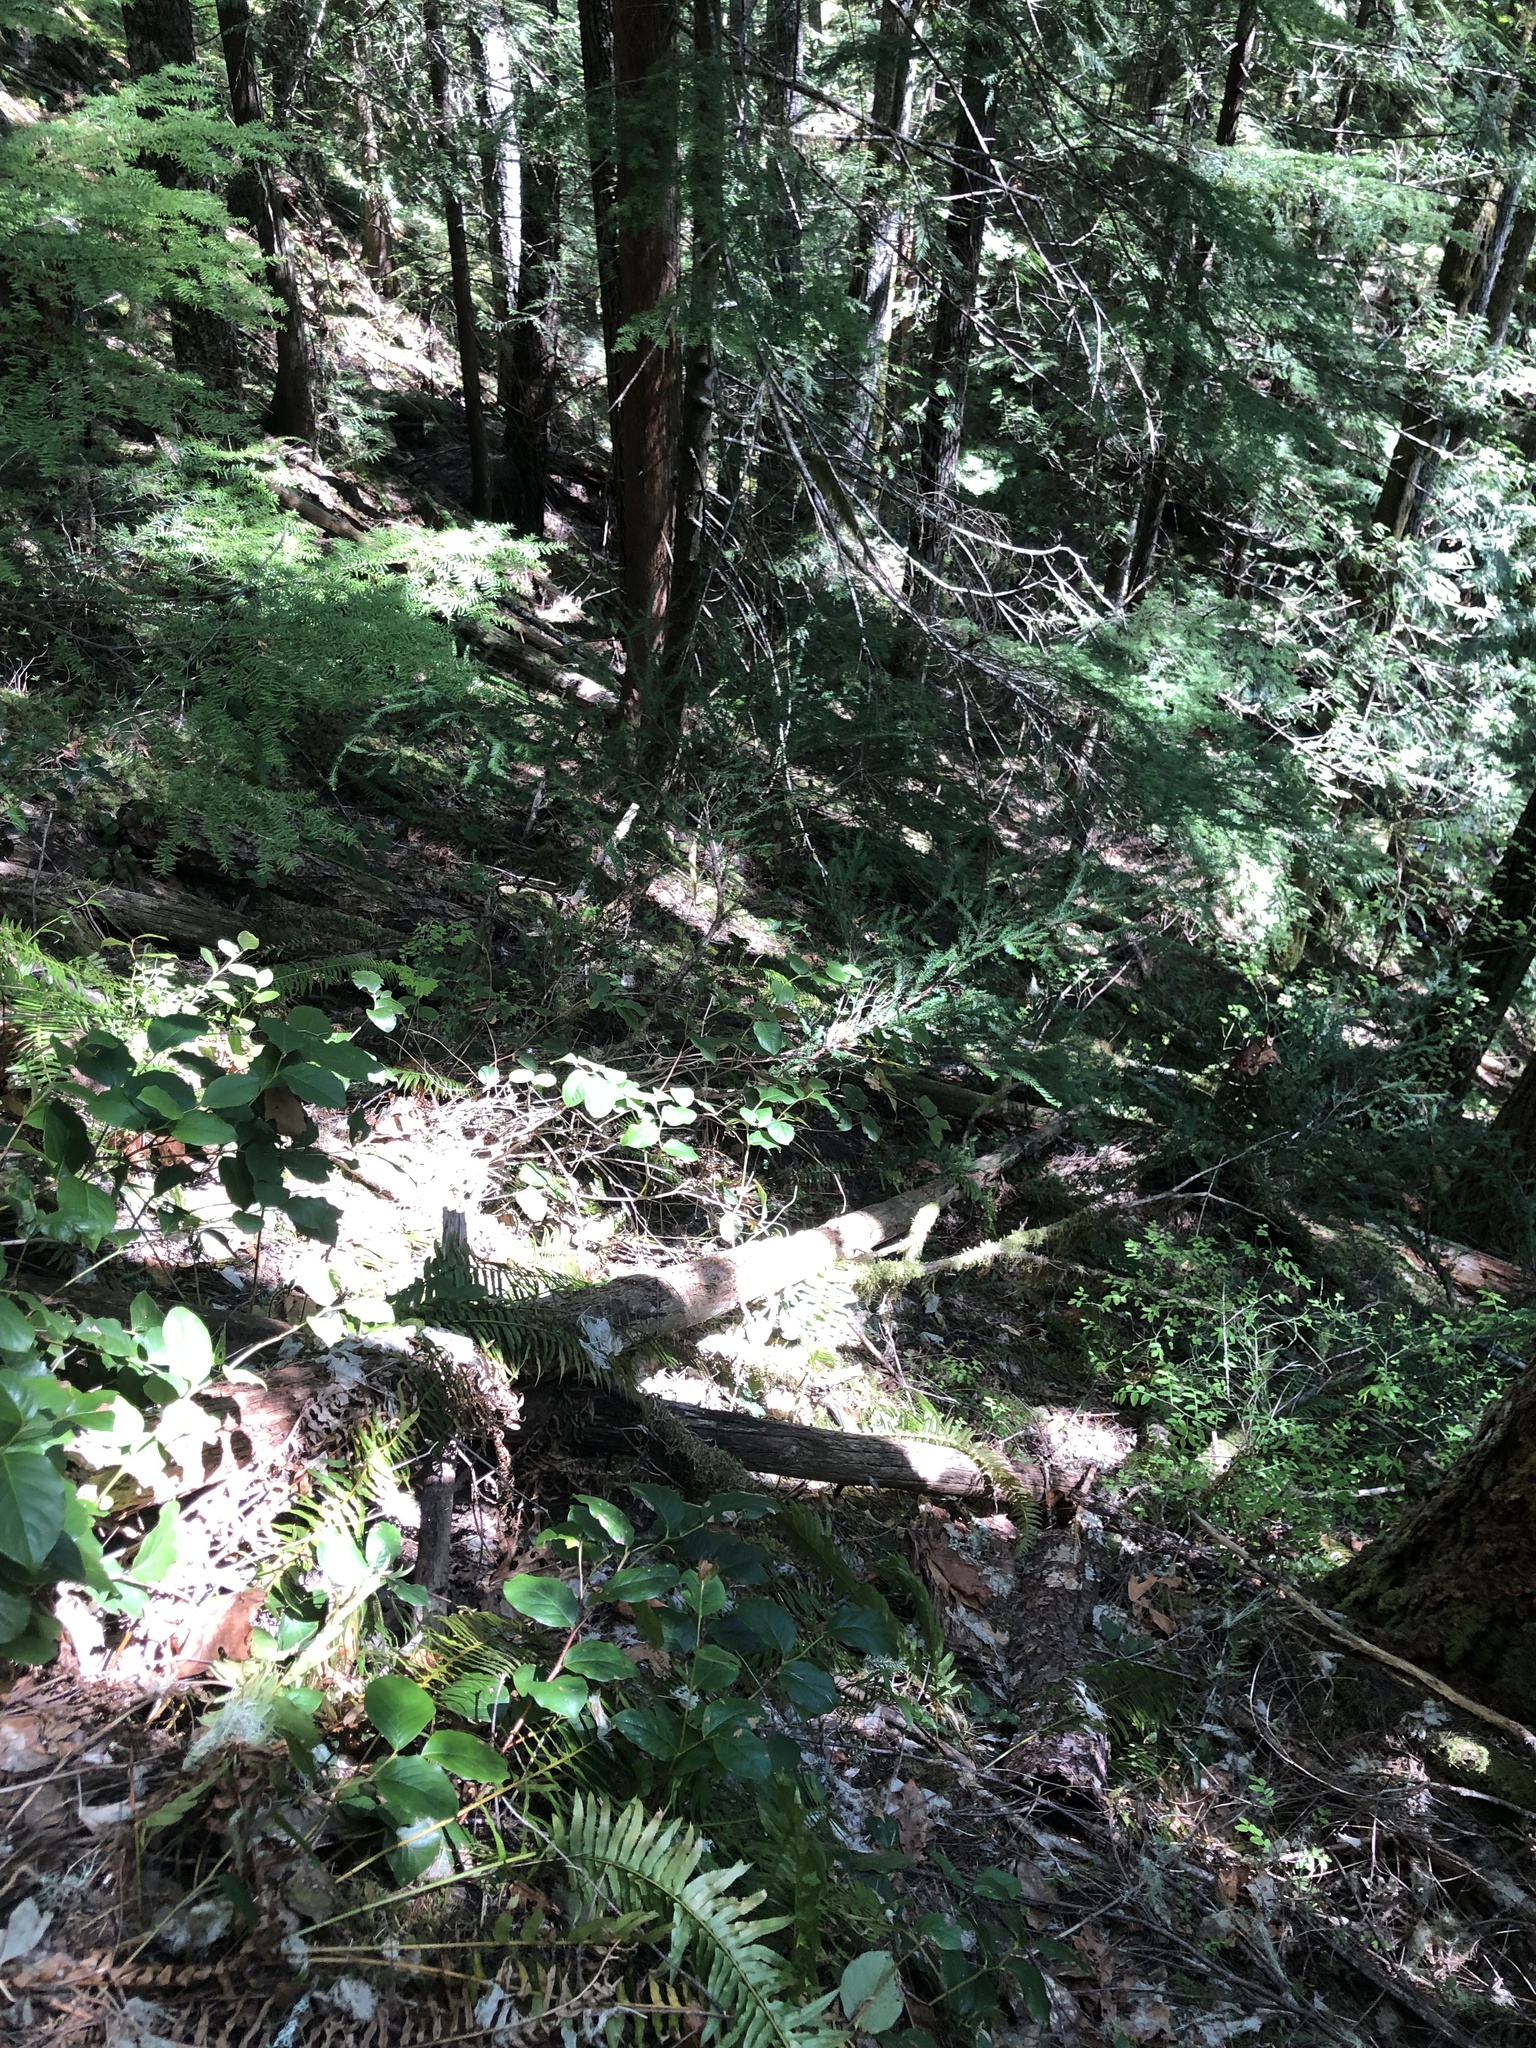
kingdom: Plantae
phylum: Tracheophyta
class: Pinopsida
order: Pinales
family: Taxaceae
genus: Taxus
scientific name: Taxus brevifolia
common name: Pacific yew
